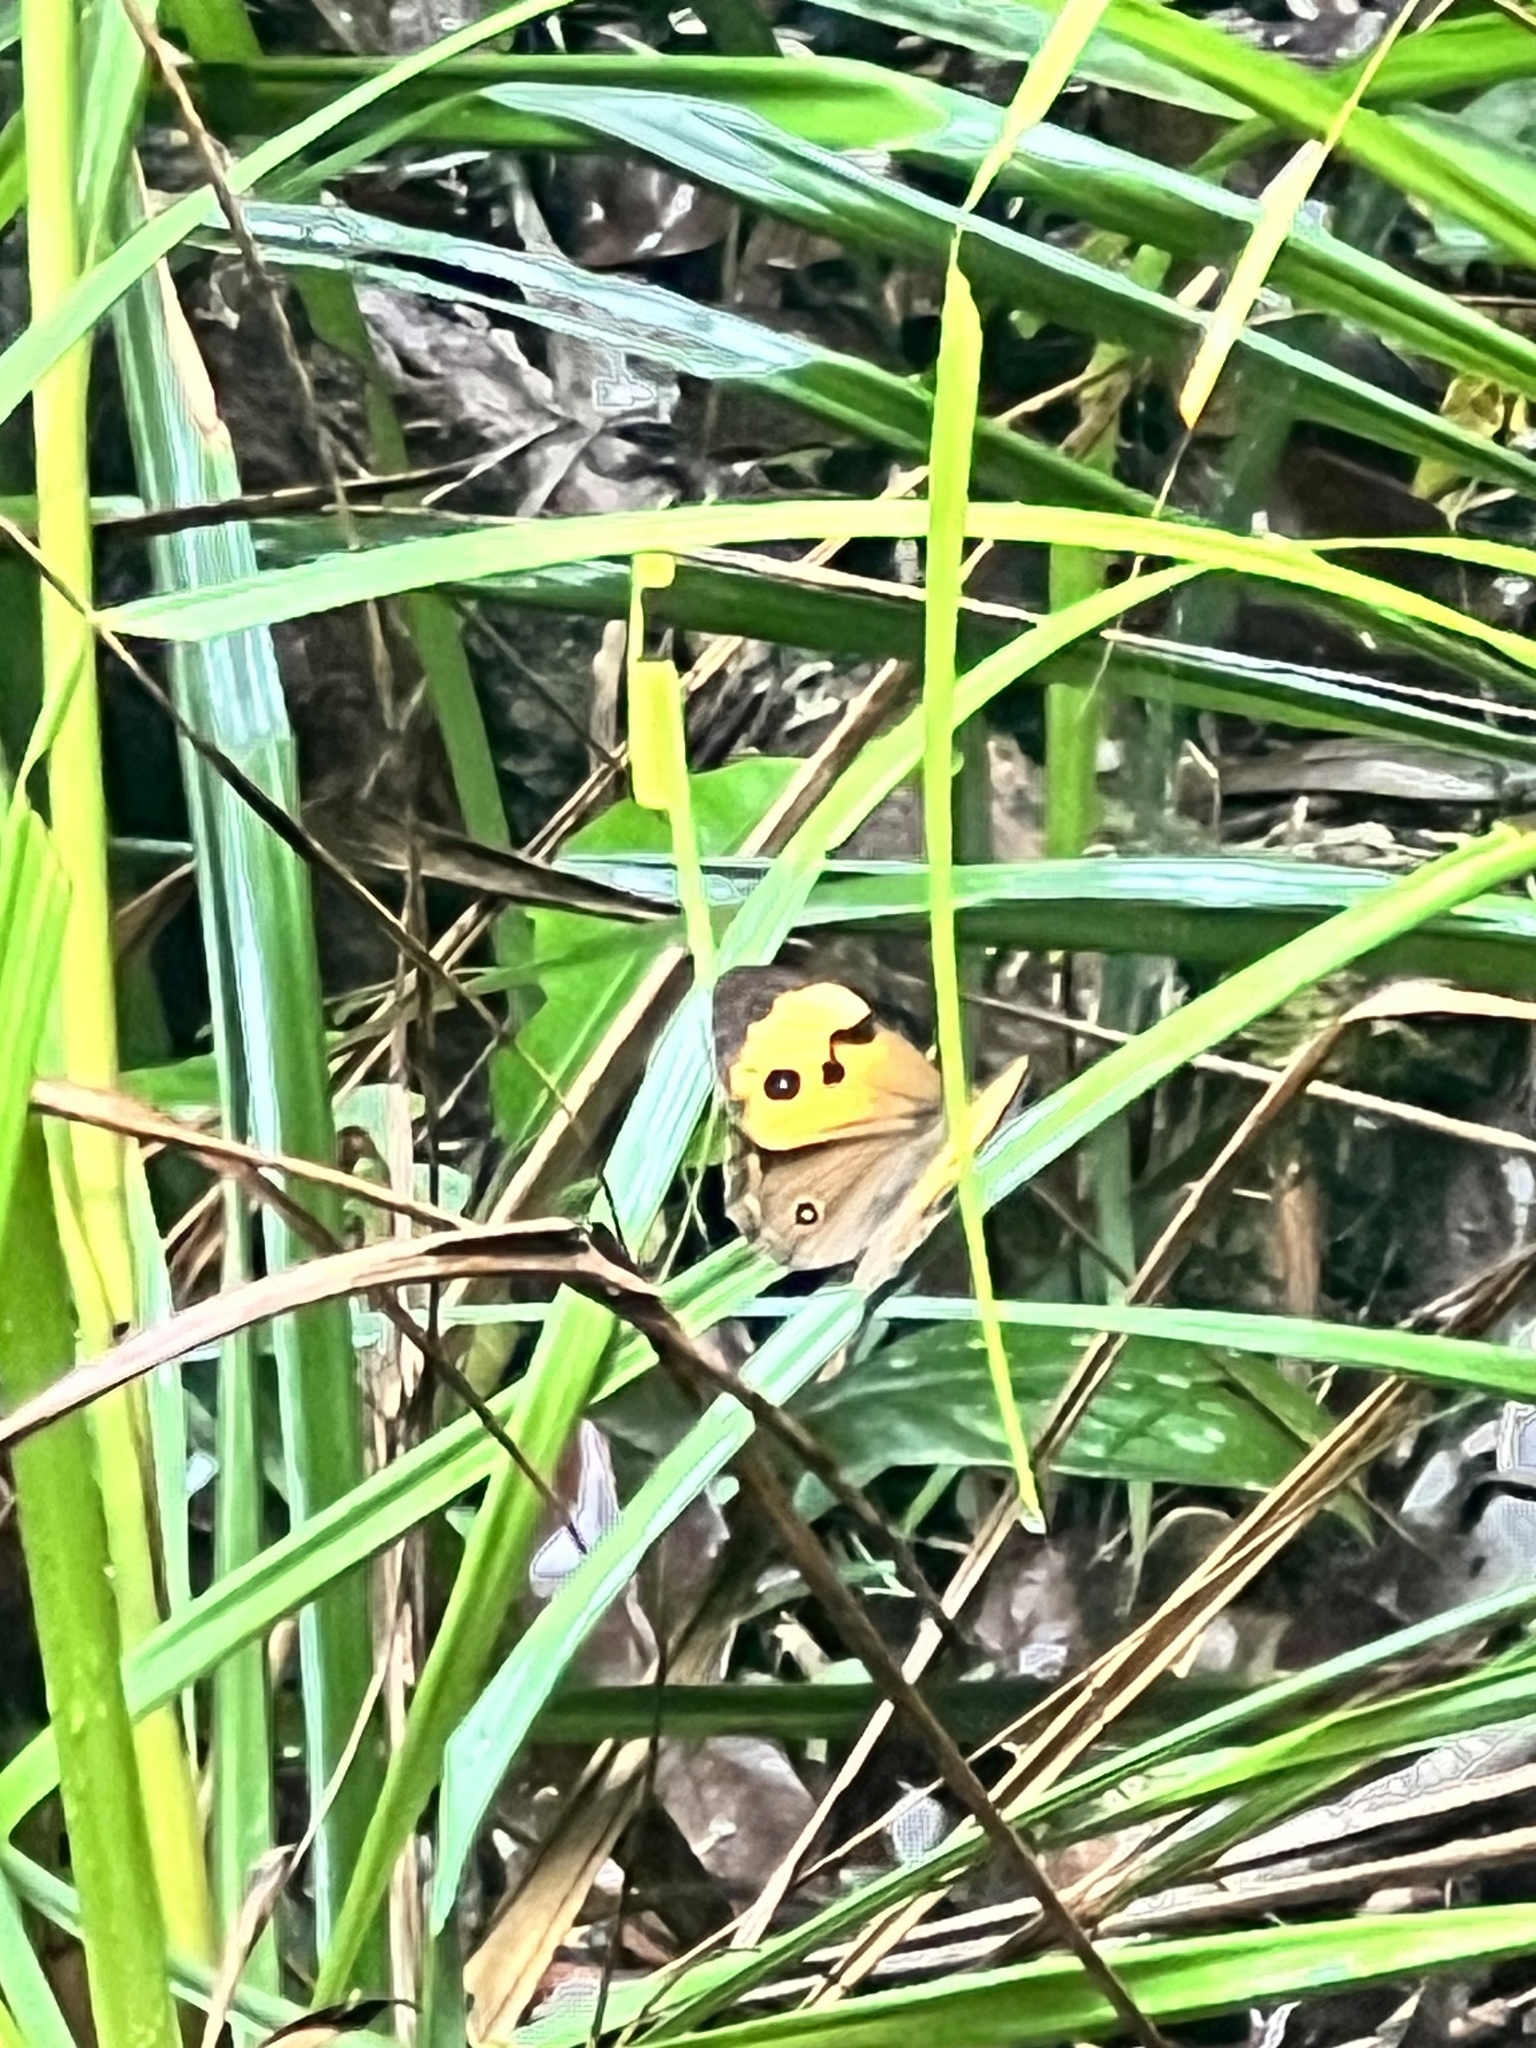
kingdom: Animalia
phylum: Arthropoda
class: Insecta
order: Lepidoptera
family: Nymphalidae
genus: Tisiphone
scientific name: Tisiphone helena
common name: Northern sword-grass brown
